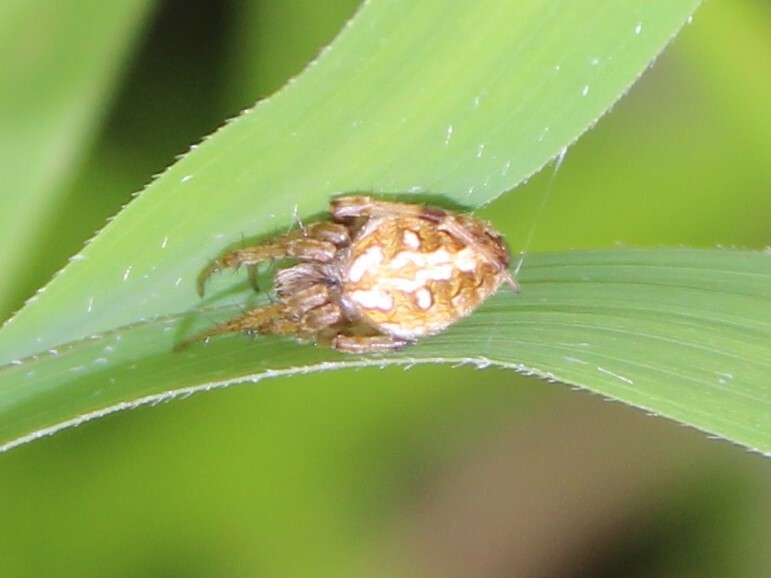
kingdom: Animalia
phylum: Arthropoda
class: Arachnida
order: Araneae
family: Araneidae
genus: Neoscona
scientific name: Neoscona arabesca
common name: Orb weavers
